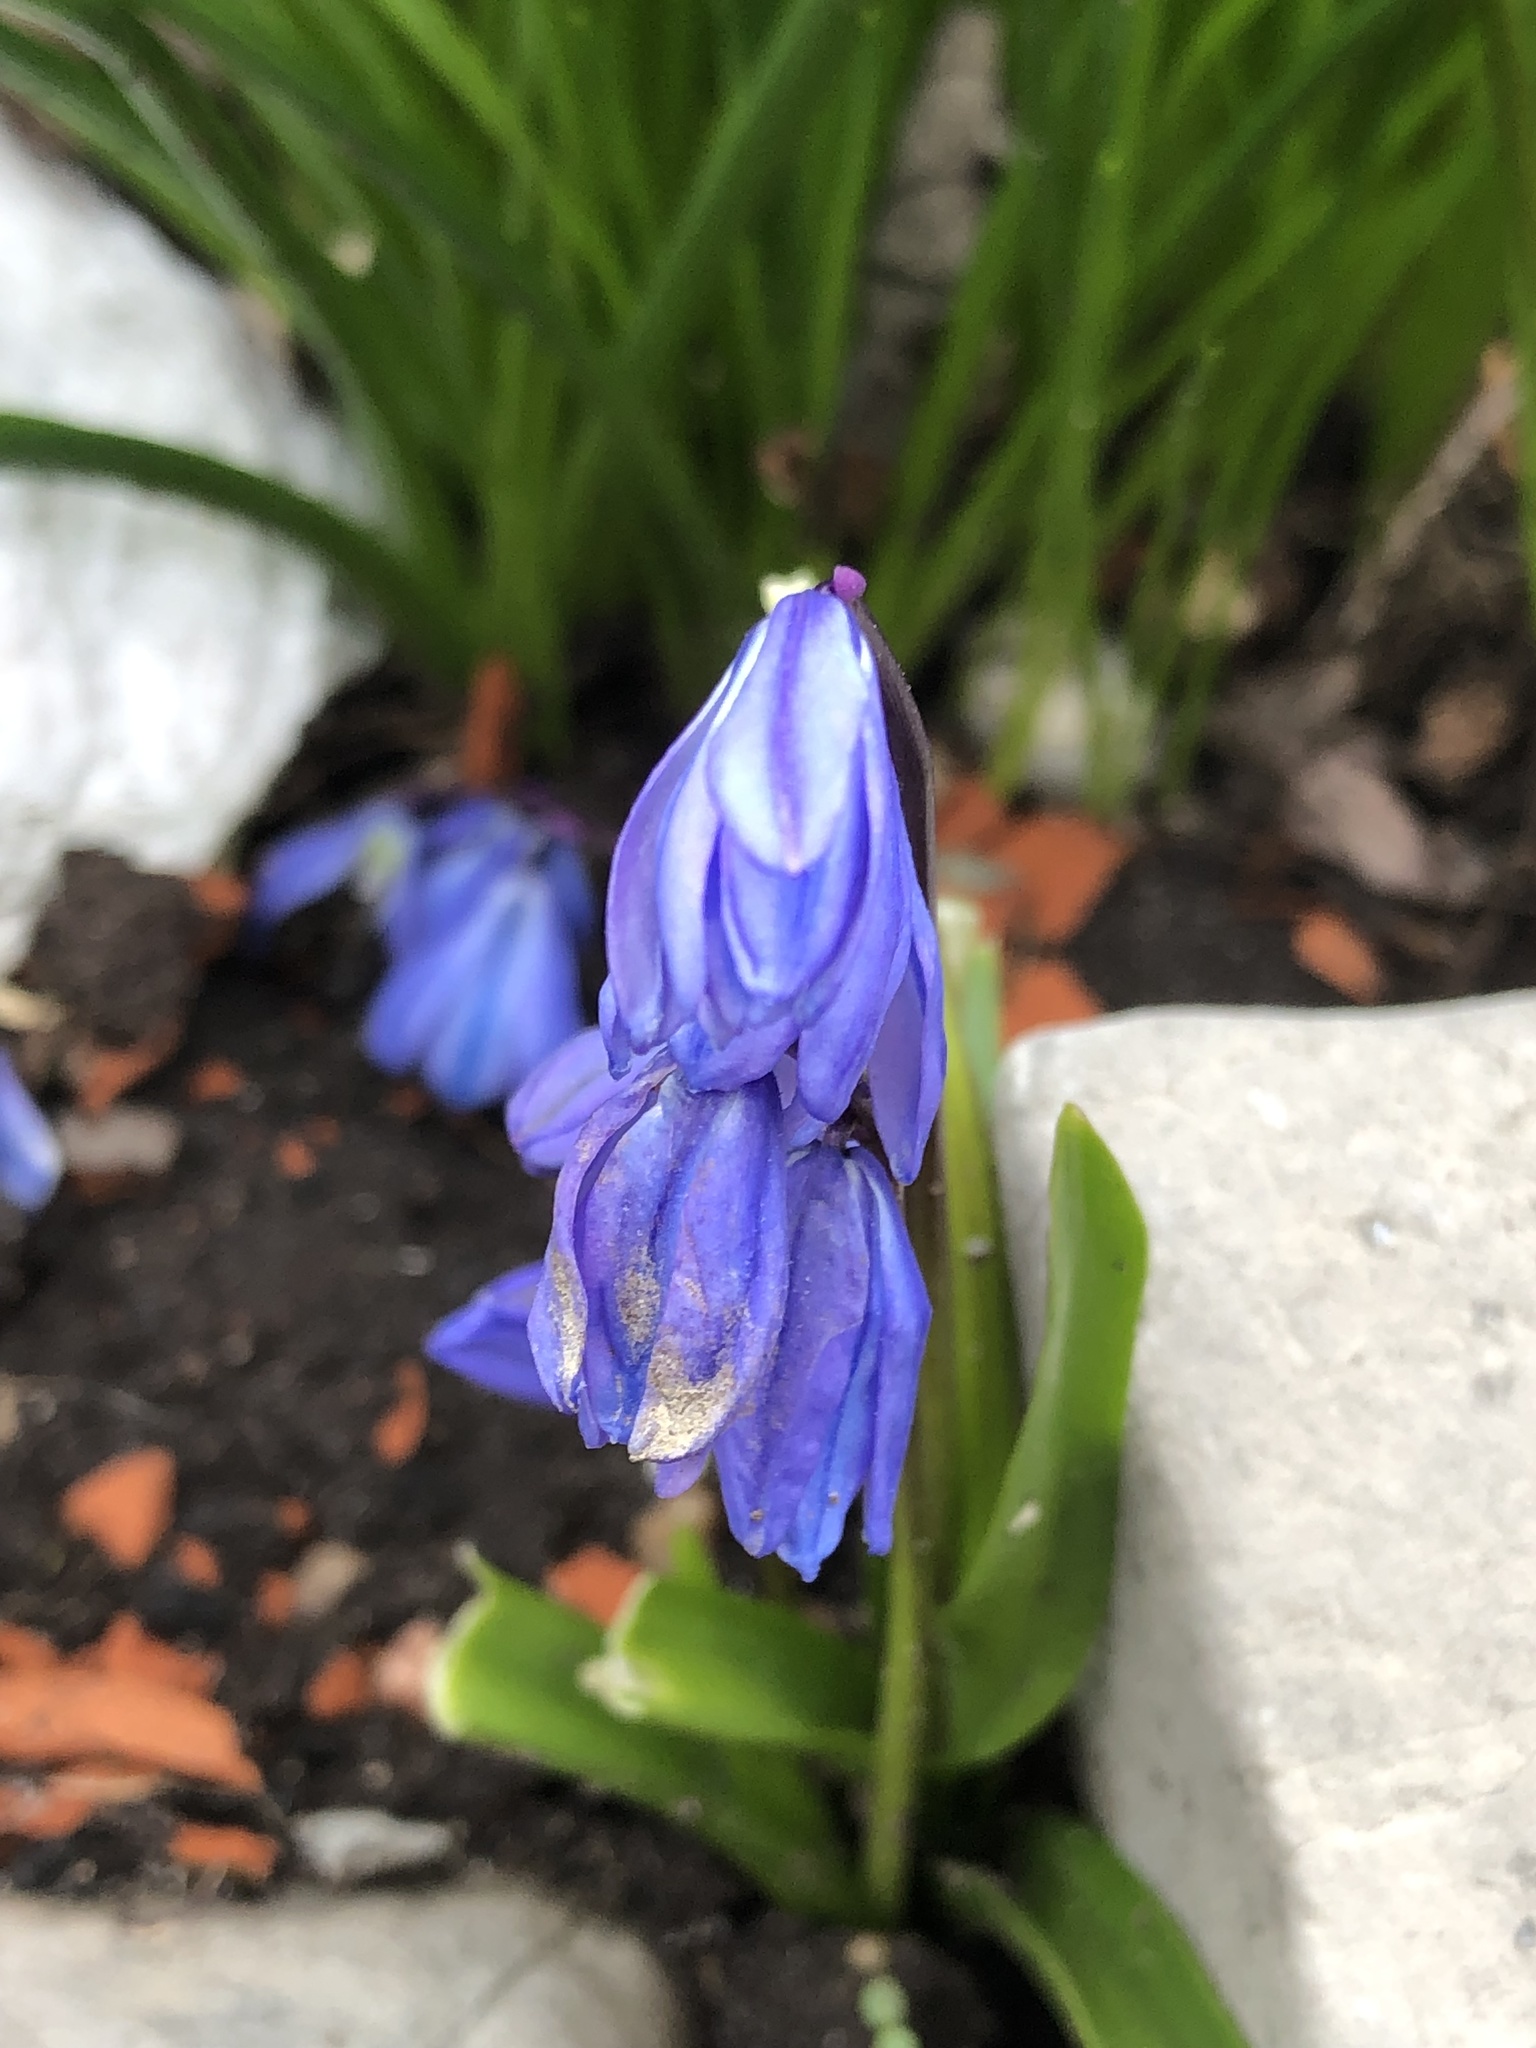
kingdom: Plantae
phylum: Tracheophyta
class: Liliopsida
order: Asparagales
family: Asparagaceae
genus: Scilla
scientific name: Scilla siberica
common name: Siberian squill
